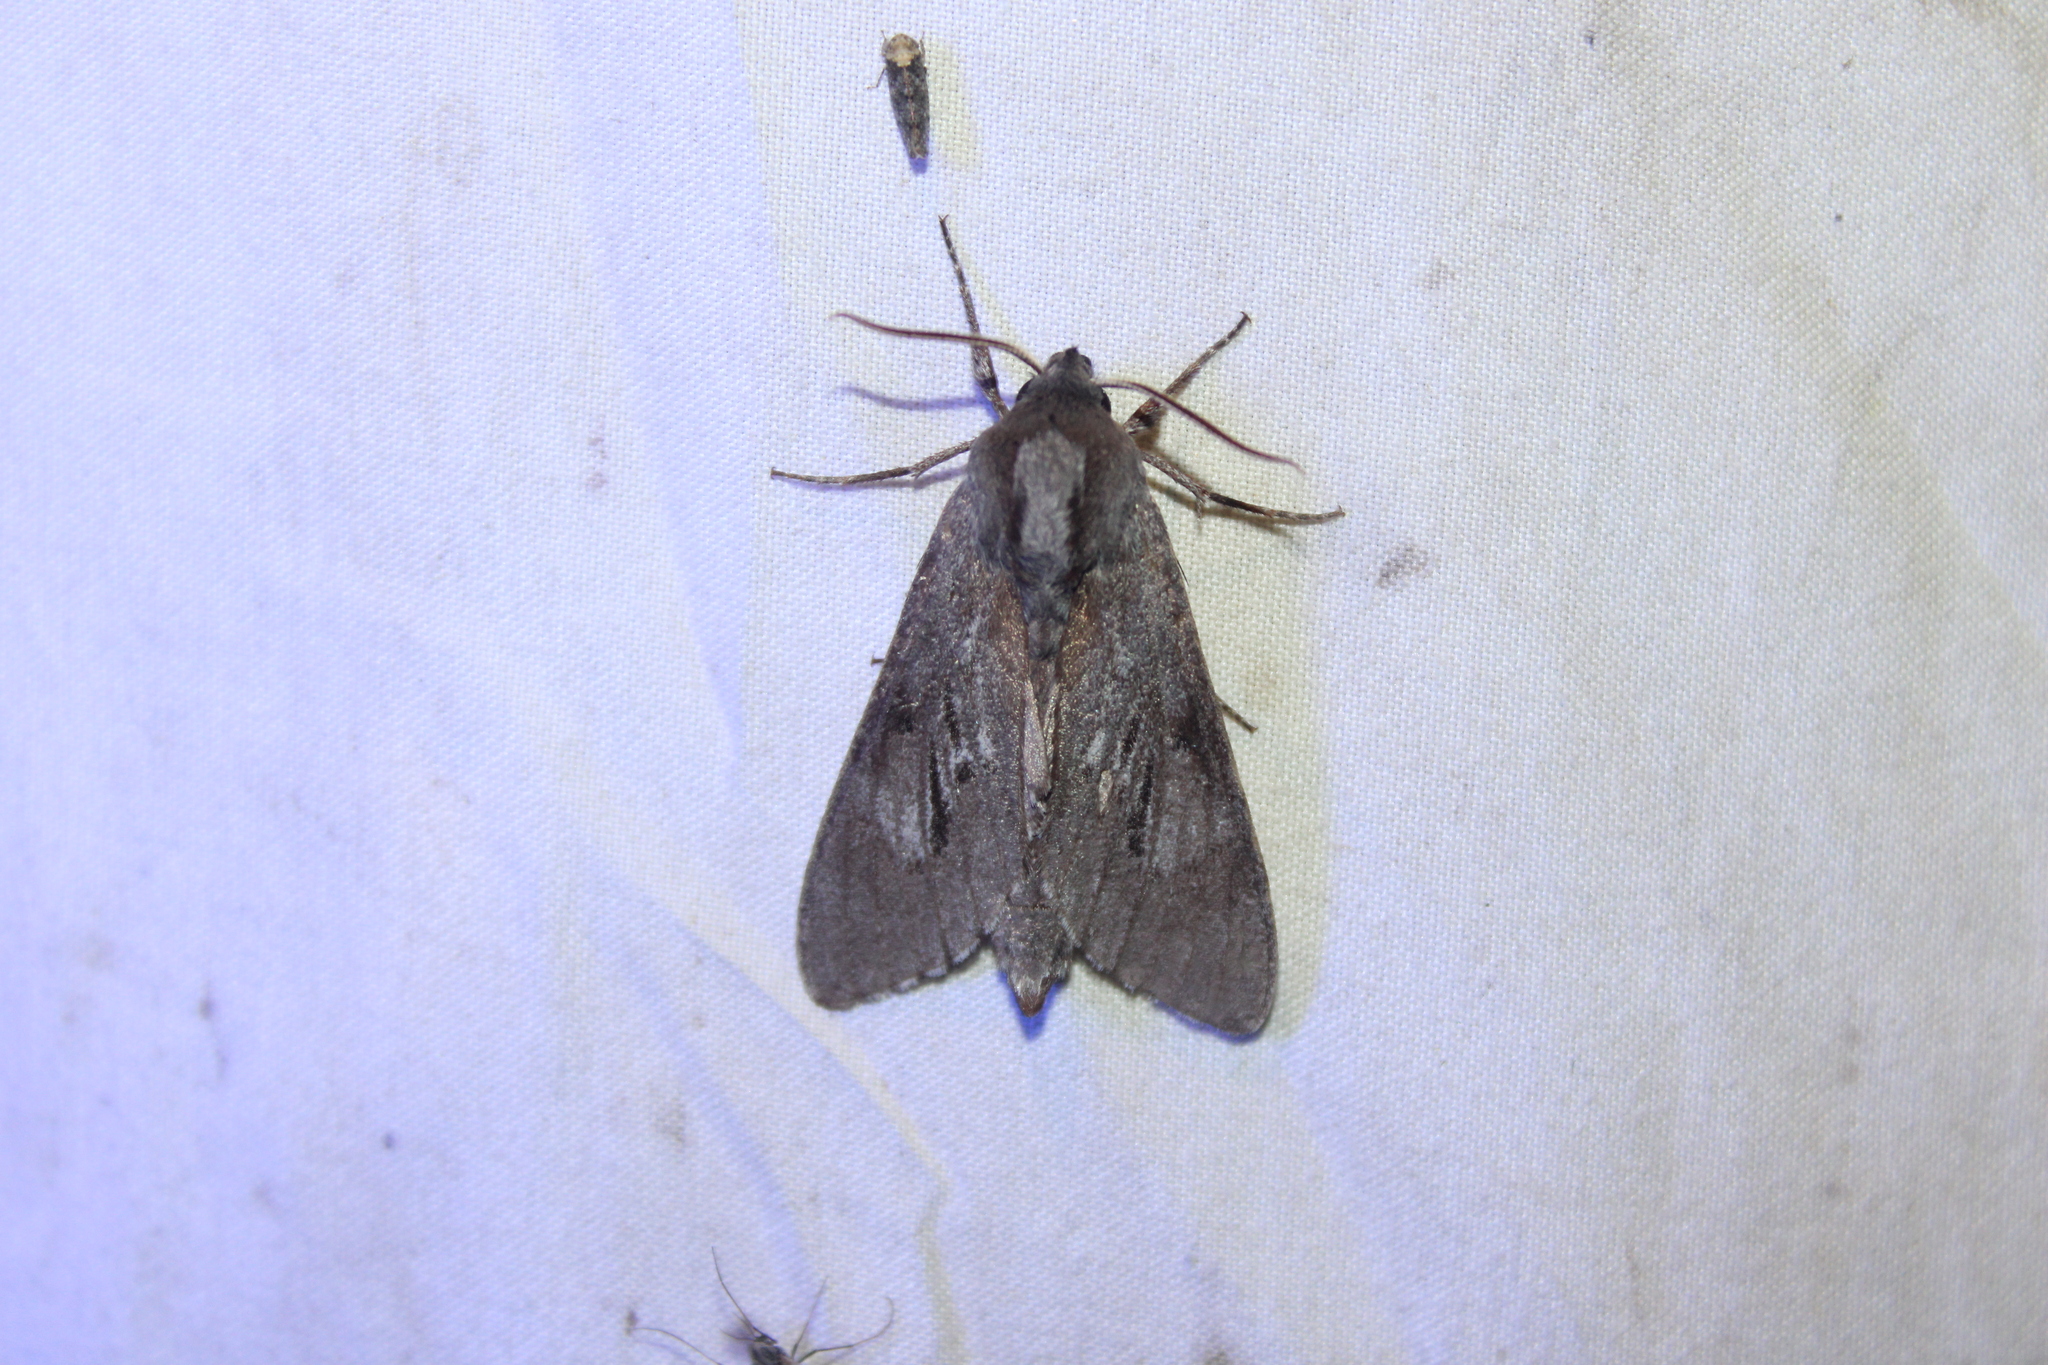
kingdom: Animalia
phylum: Arthropoda
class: Insecta
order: Lepidoptera
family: Sphingidae
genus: Lapara
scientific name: Lapara coniferarum
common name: Southern pine sphinx
